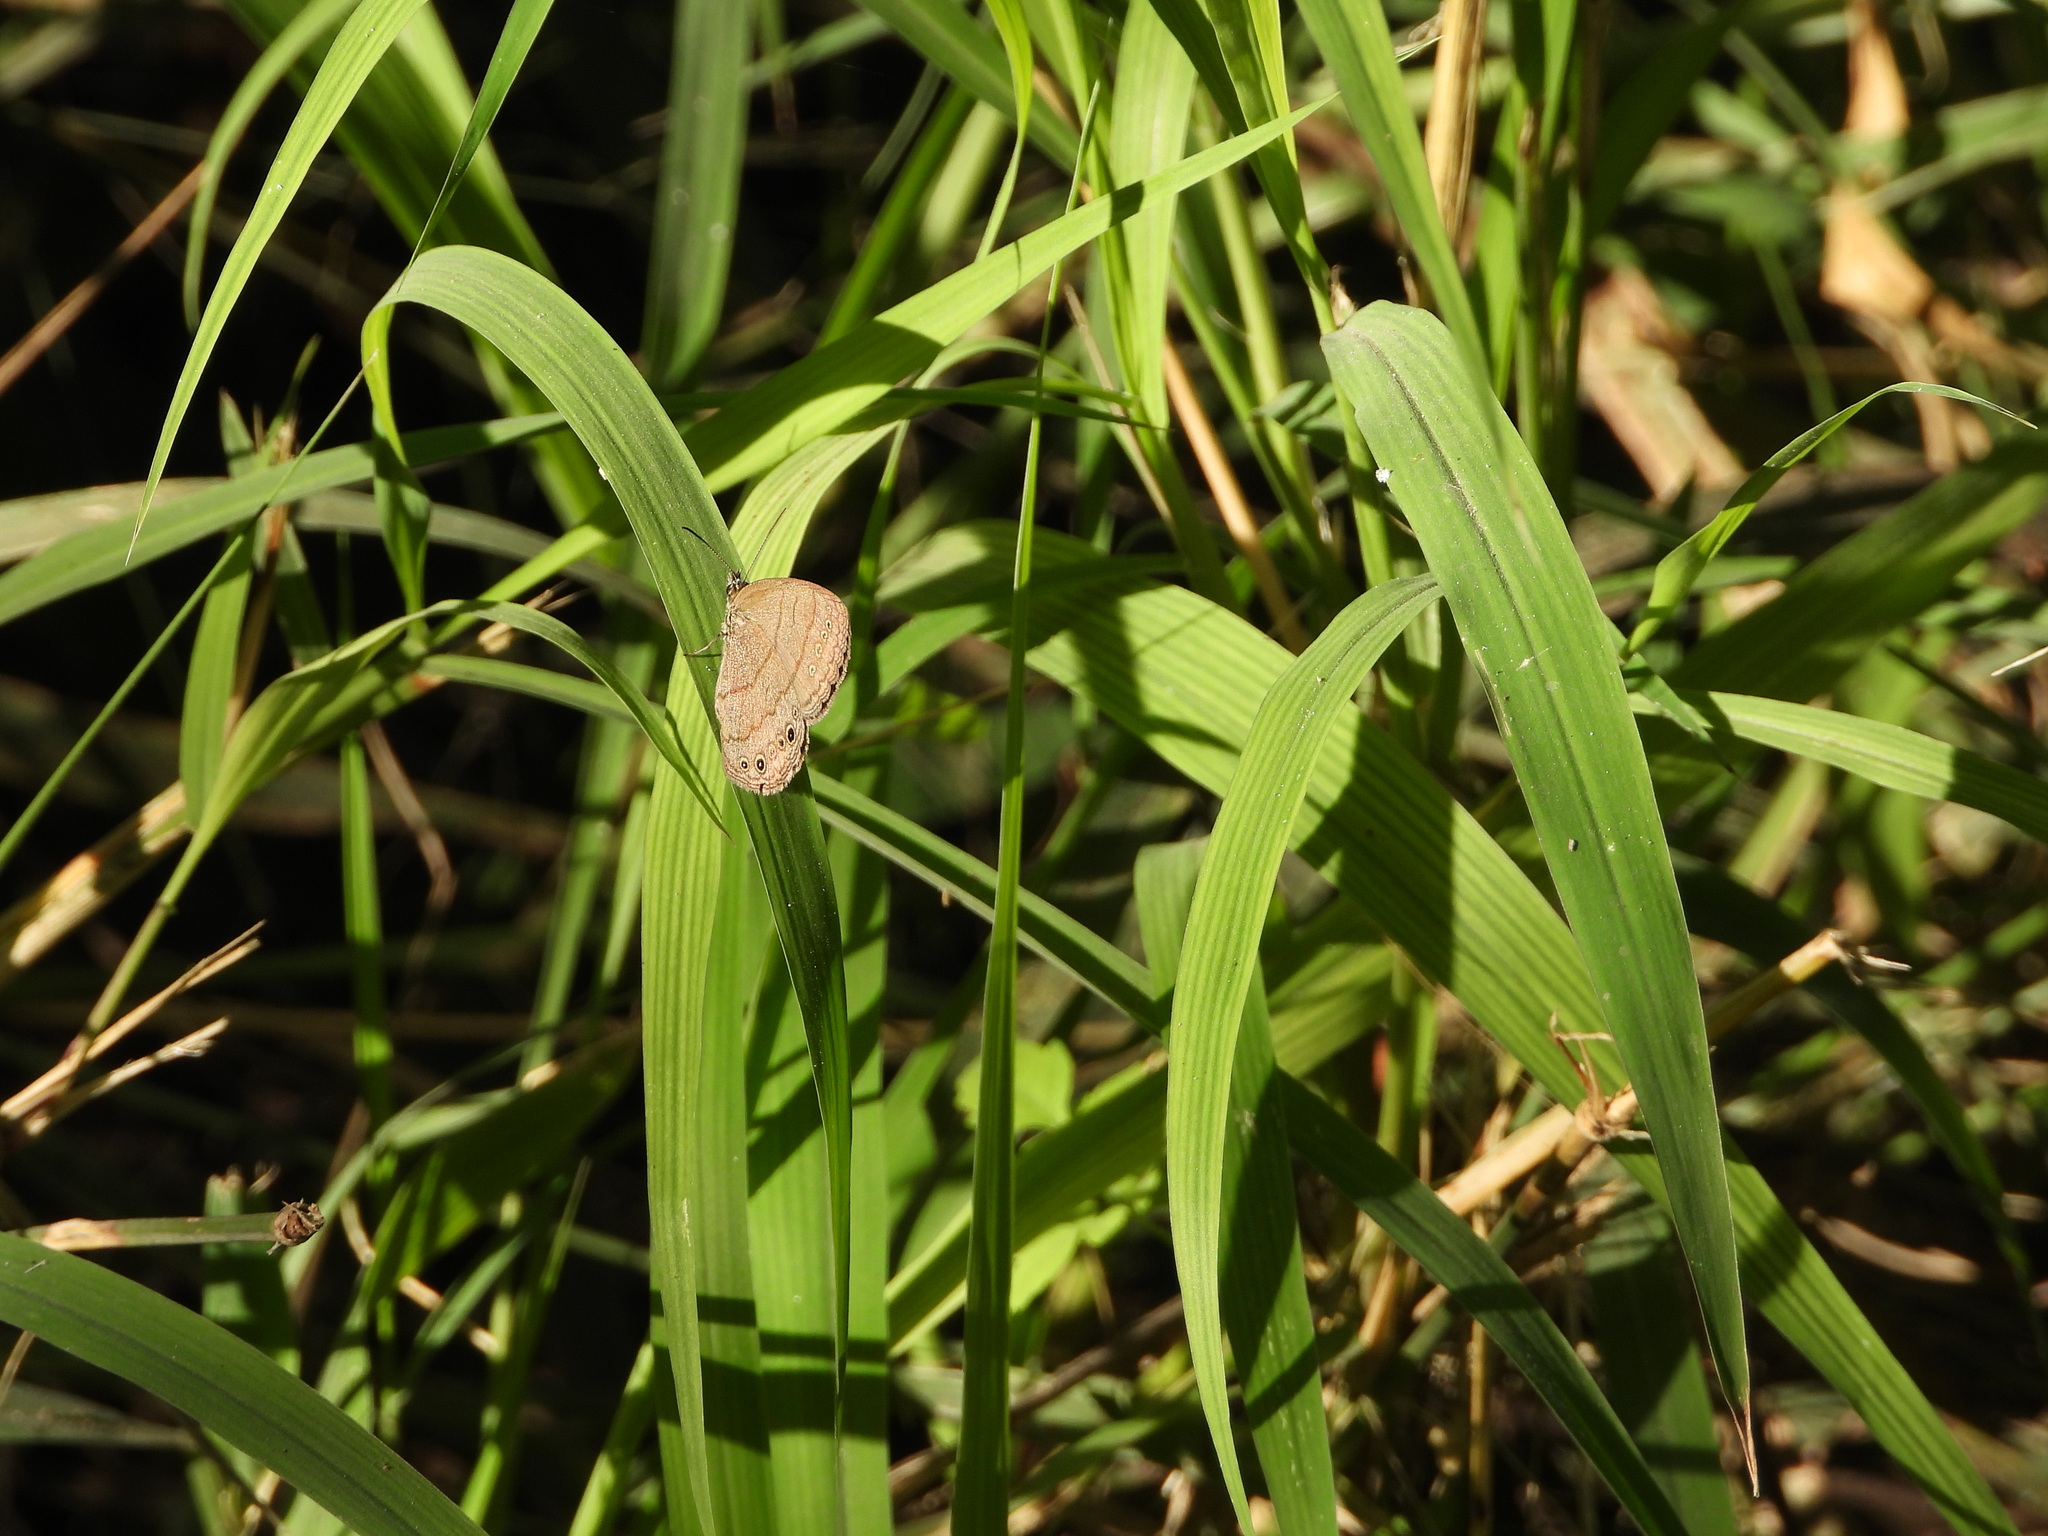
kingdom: Animalia
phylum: Arthropoda
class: Insecta
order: Lepidoptera
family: Nymphalidae
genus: Hermeuptychia
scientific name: Hermeuptychia hermybius
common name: South texas satyr
